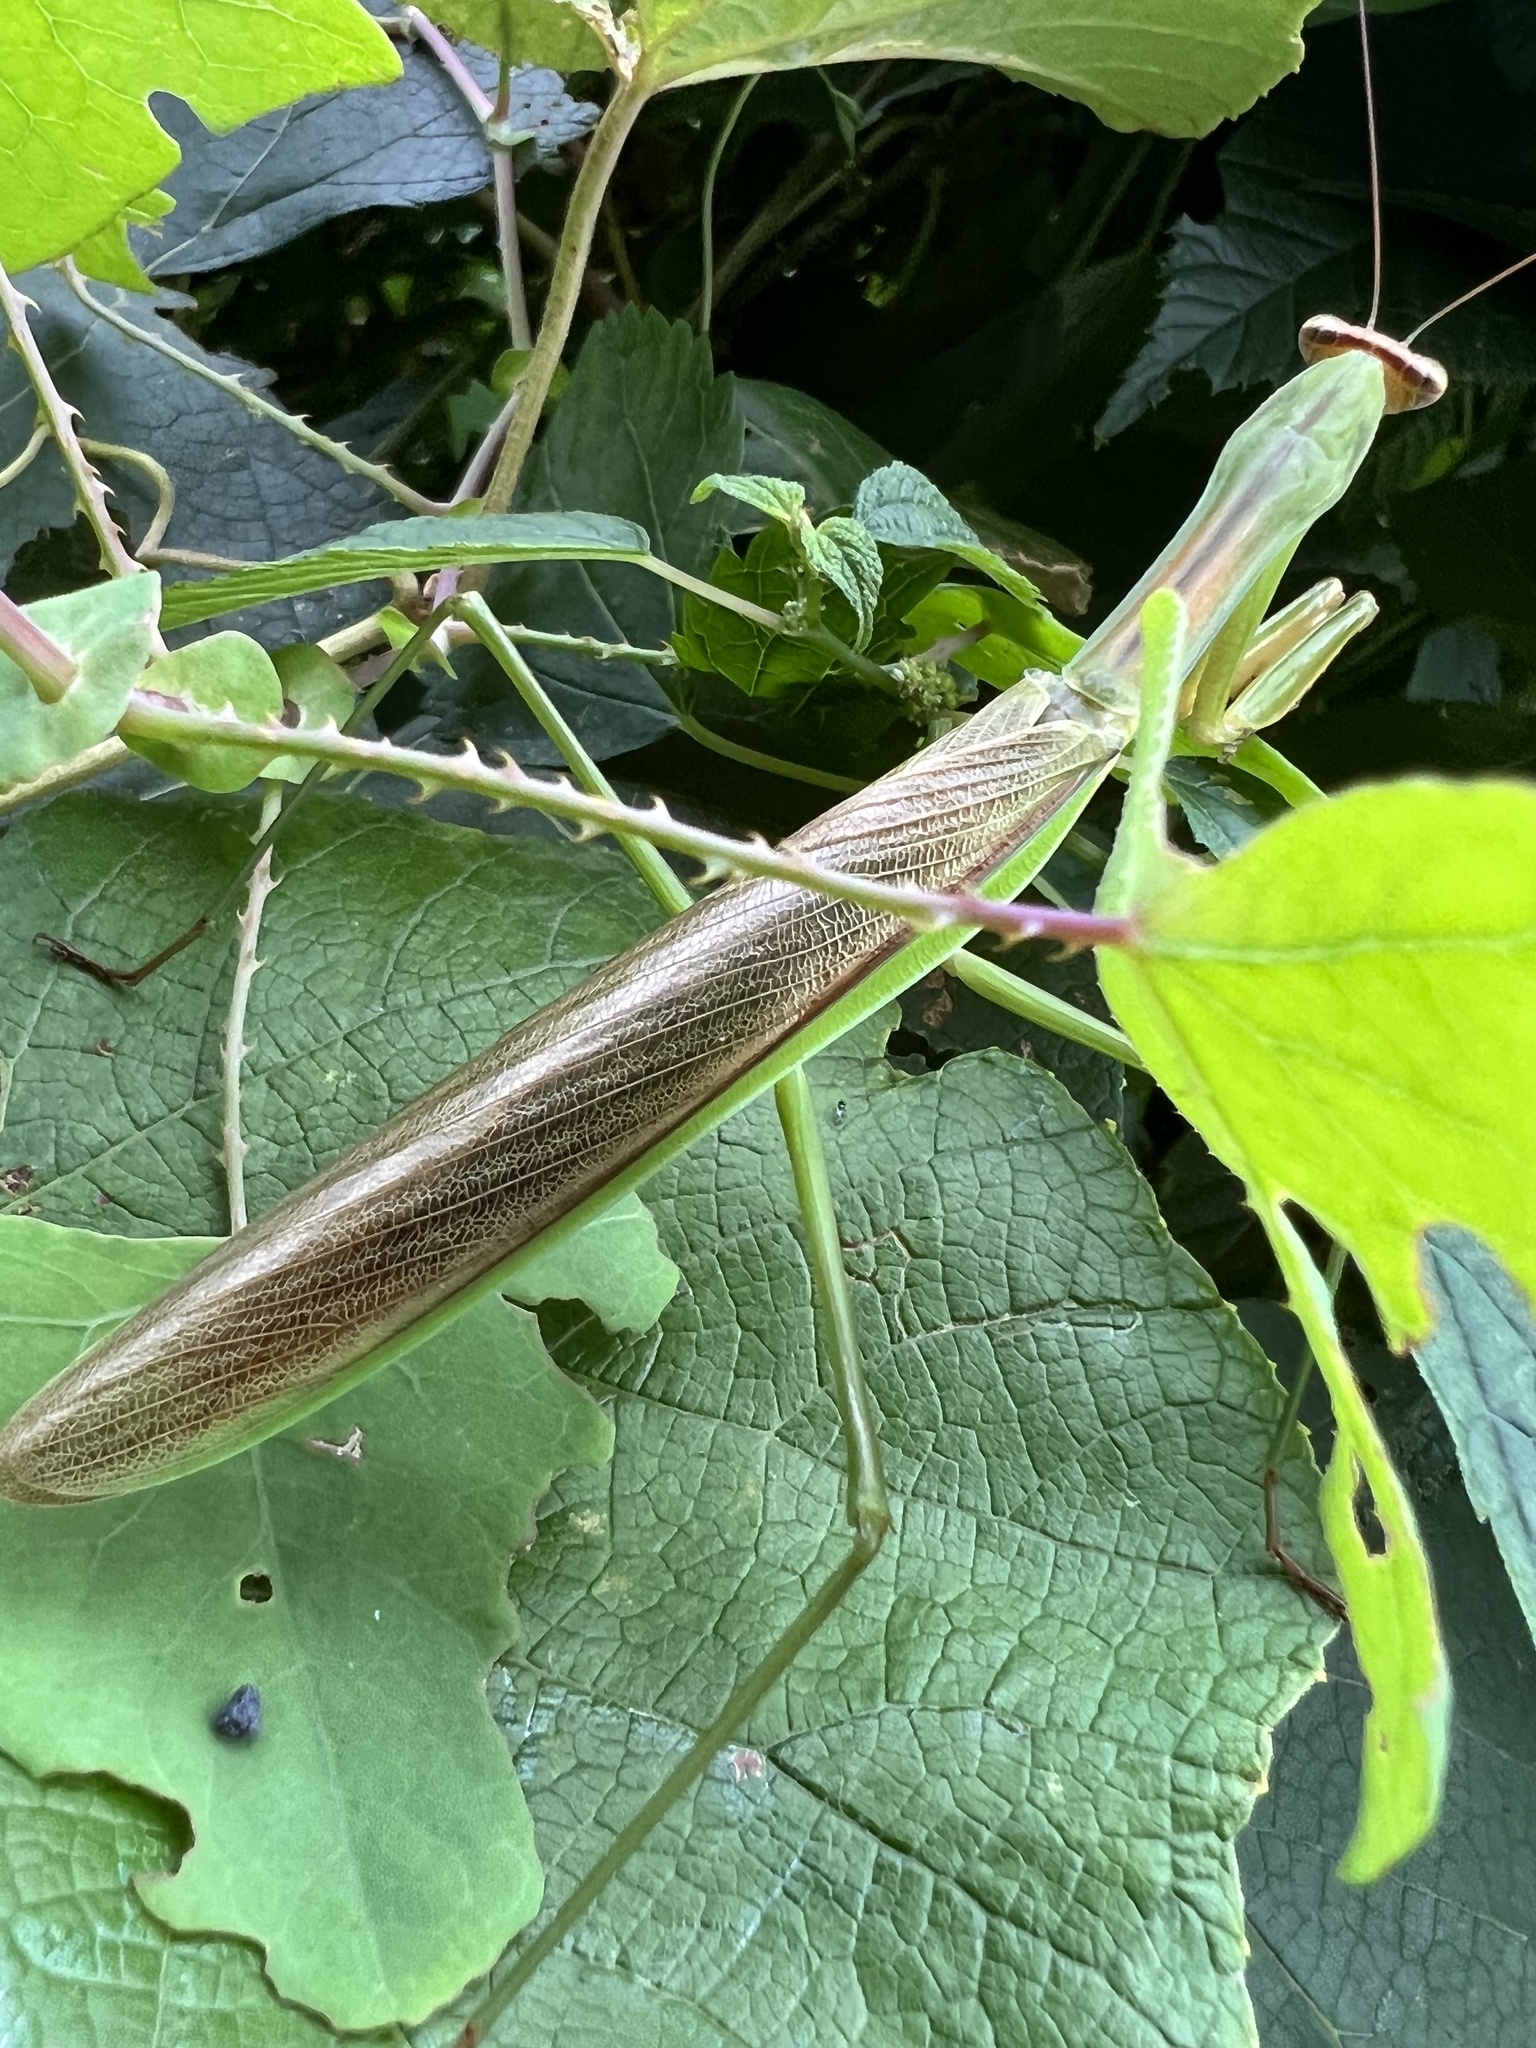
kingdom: Animalia
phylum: Arthropoda
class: Insecta
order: Mantodea
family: Mantidae
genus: Tenodera
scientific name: Tenodera sinensis
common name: Chinese mantis
